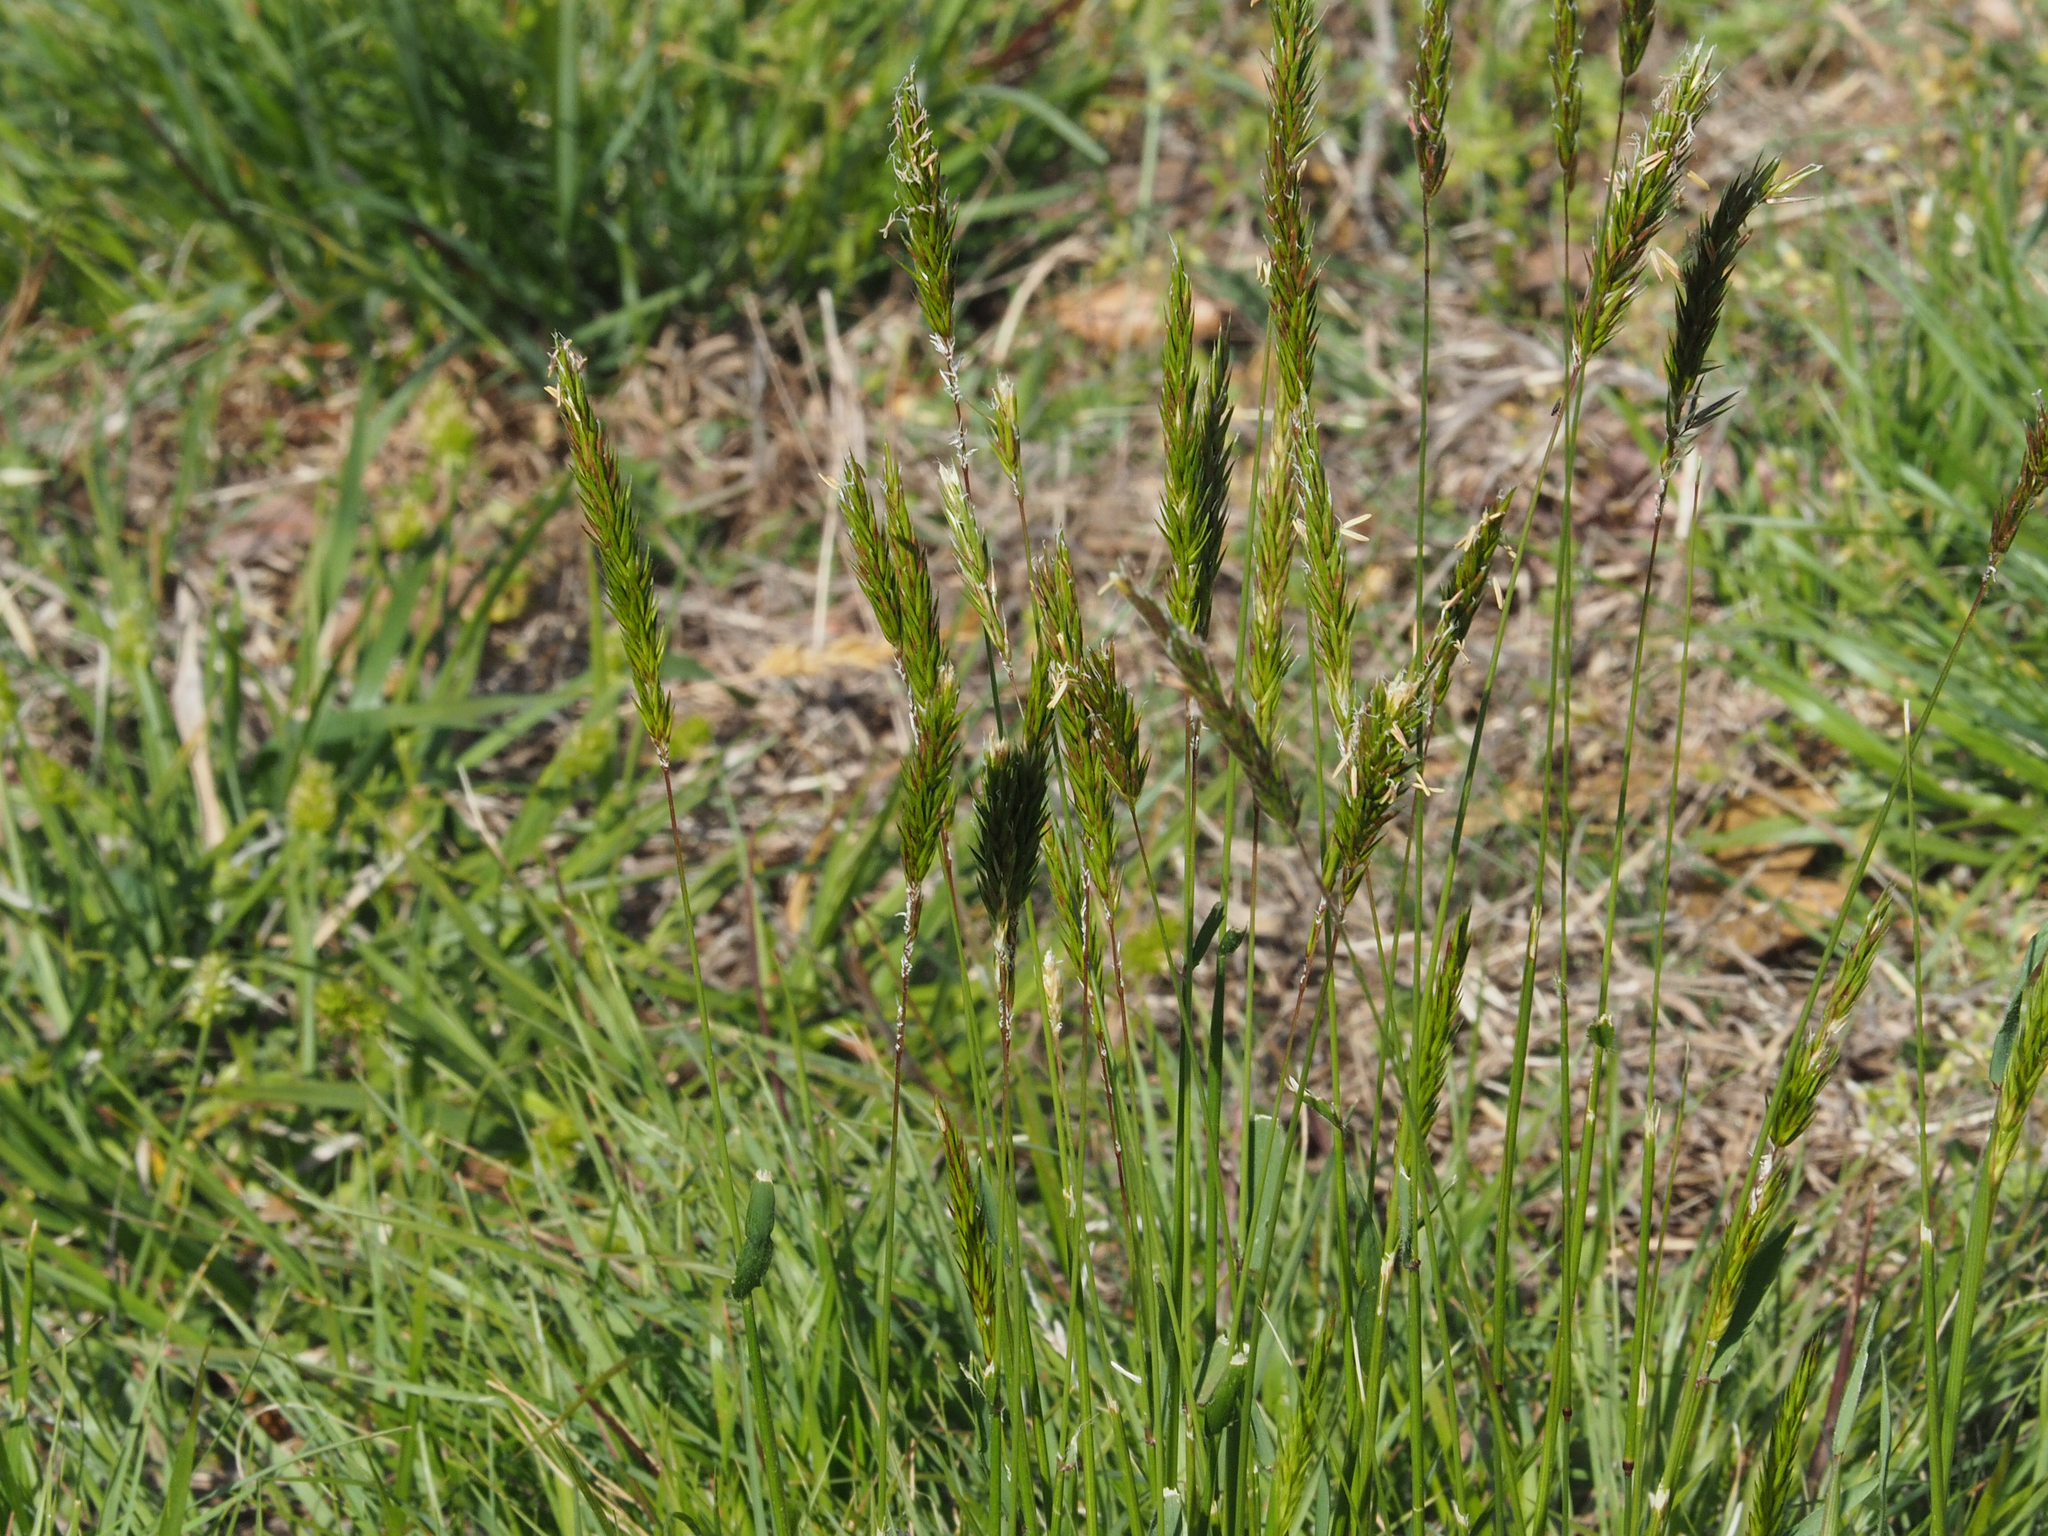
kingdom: Plantae
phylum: Tracheophyta
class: Liliopsida
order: Poales
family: Poaceae
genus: Anthoxanthum
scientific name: Anthoxanthum odoratum
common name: Sweet vernalgrass
